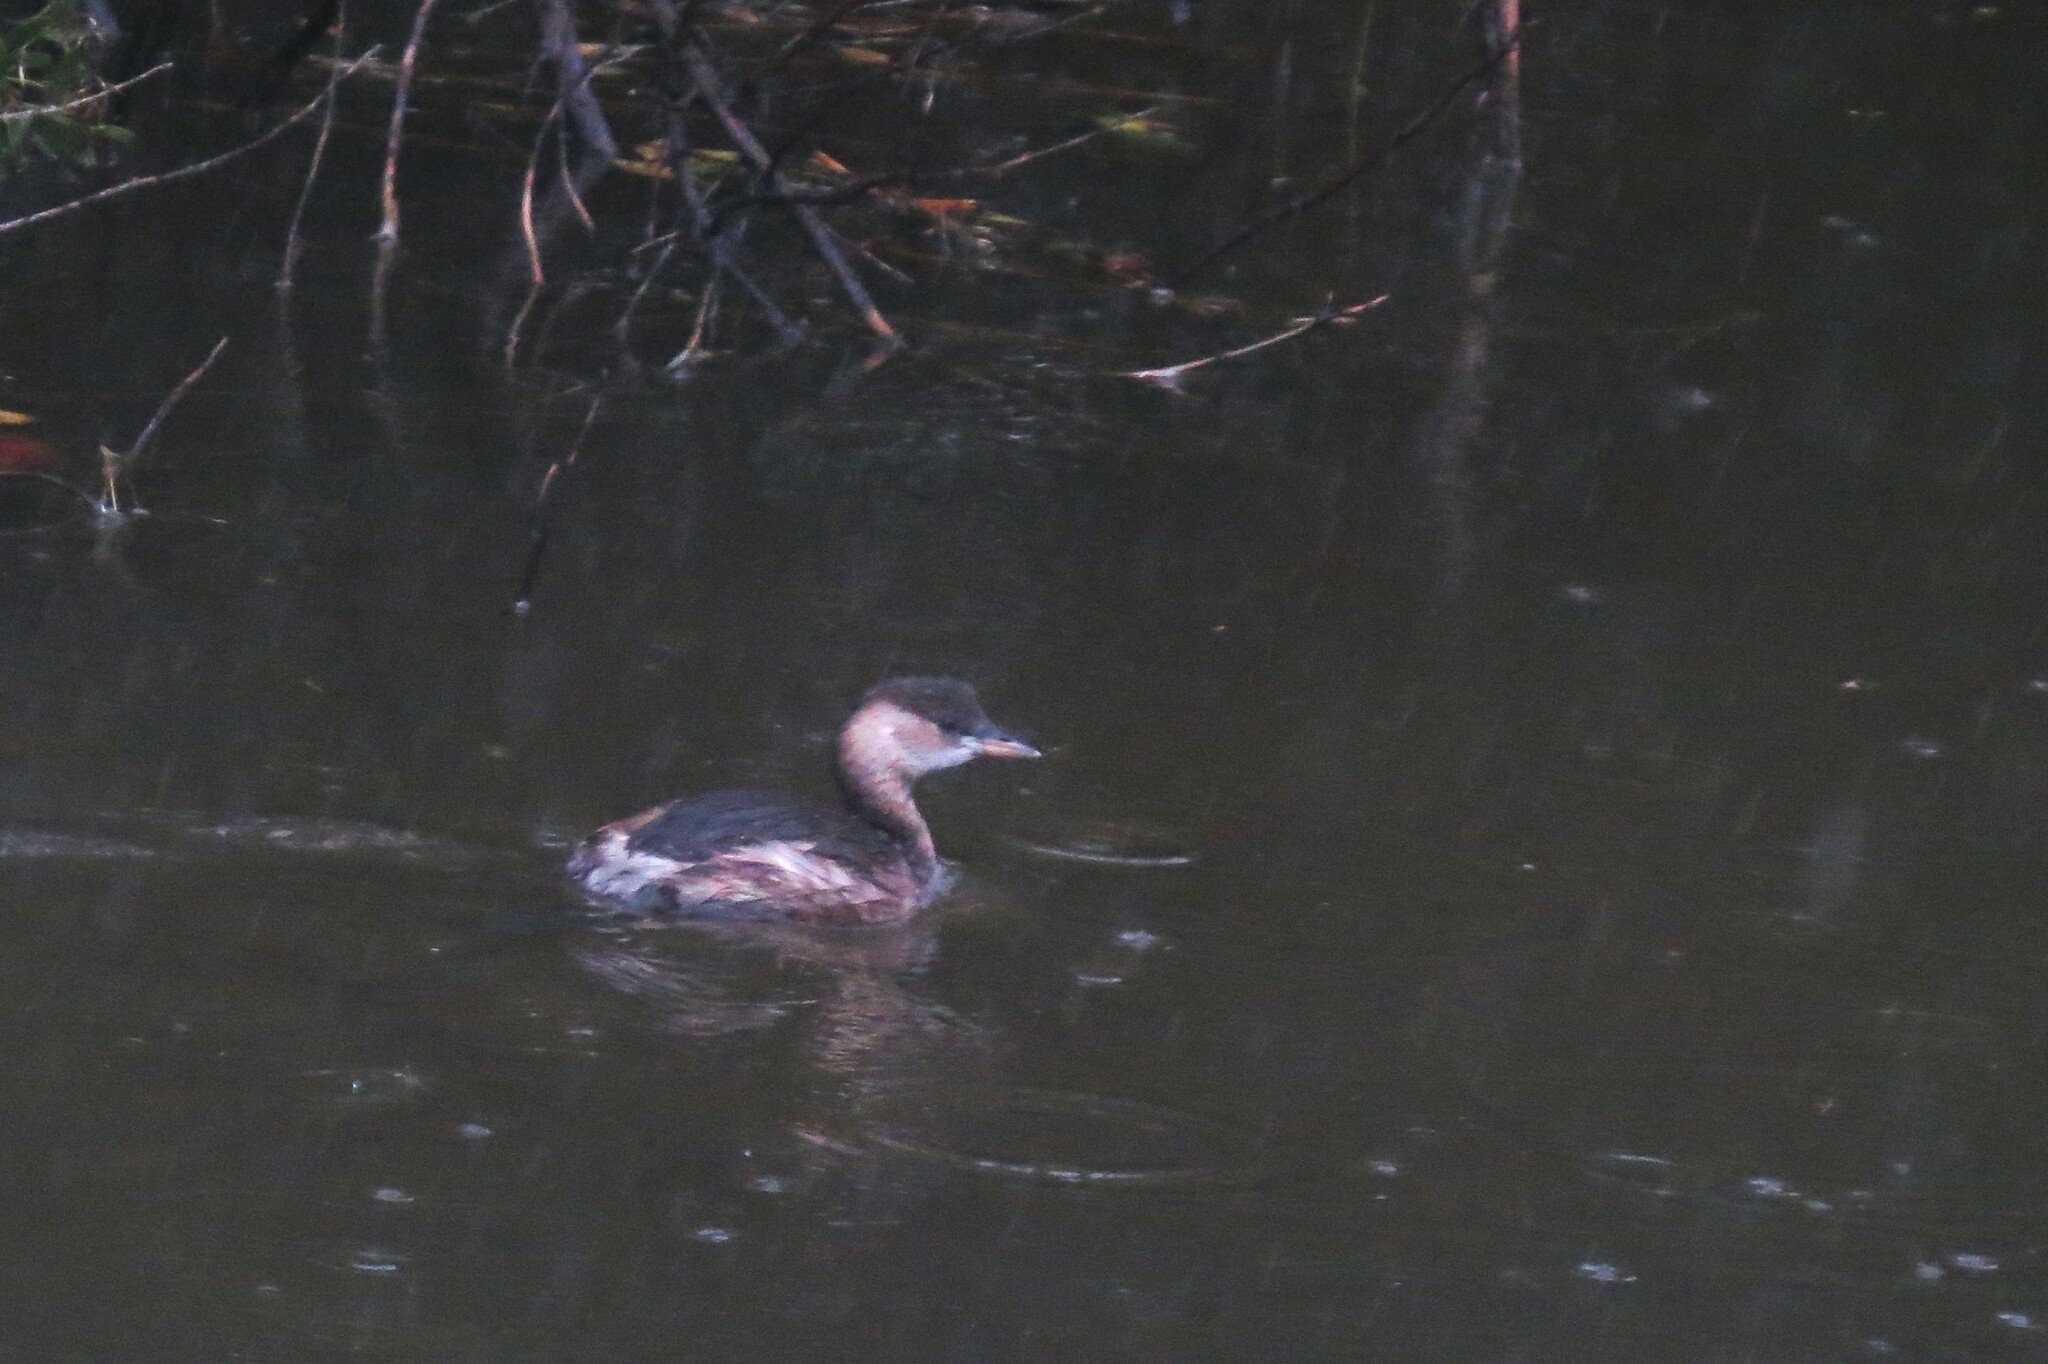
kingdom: Animalia
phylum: Chordata
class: Aves
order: Podicipediformes
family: Podicipedidae
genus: Tachybaptus
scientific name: Tachybaptus ruficollis
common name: Little grebe
